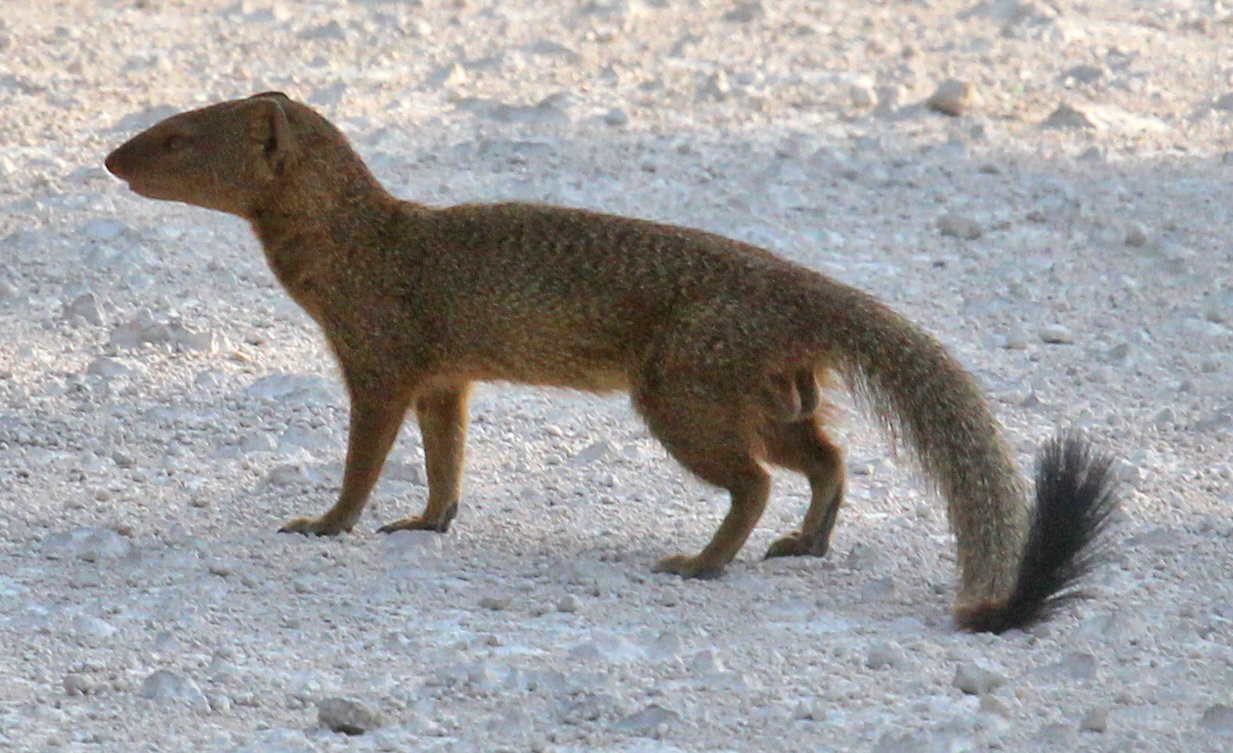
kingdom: Animalia
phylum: Chordata
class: Mammalia
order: Carnivora
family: Herpestidae
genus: Galerella
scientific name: Galerella sanguinea
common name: Slender mongoose
